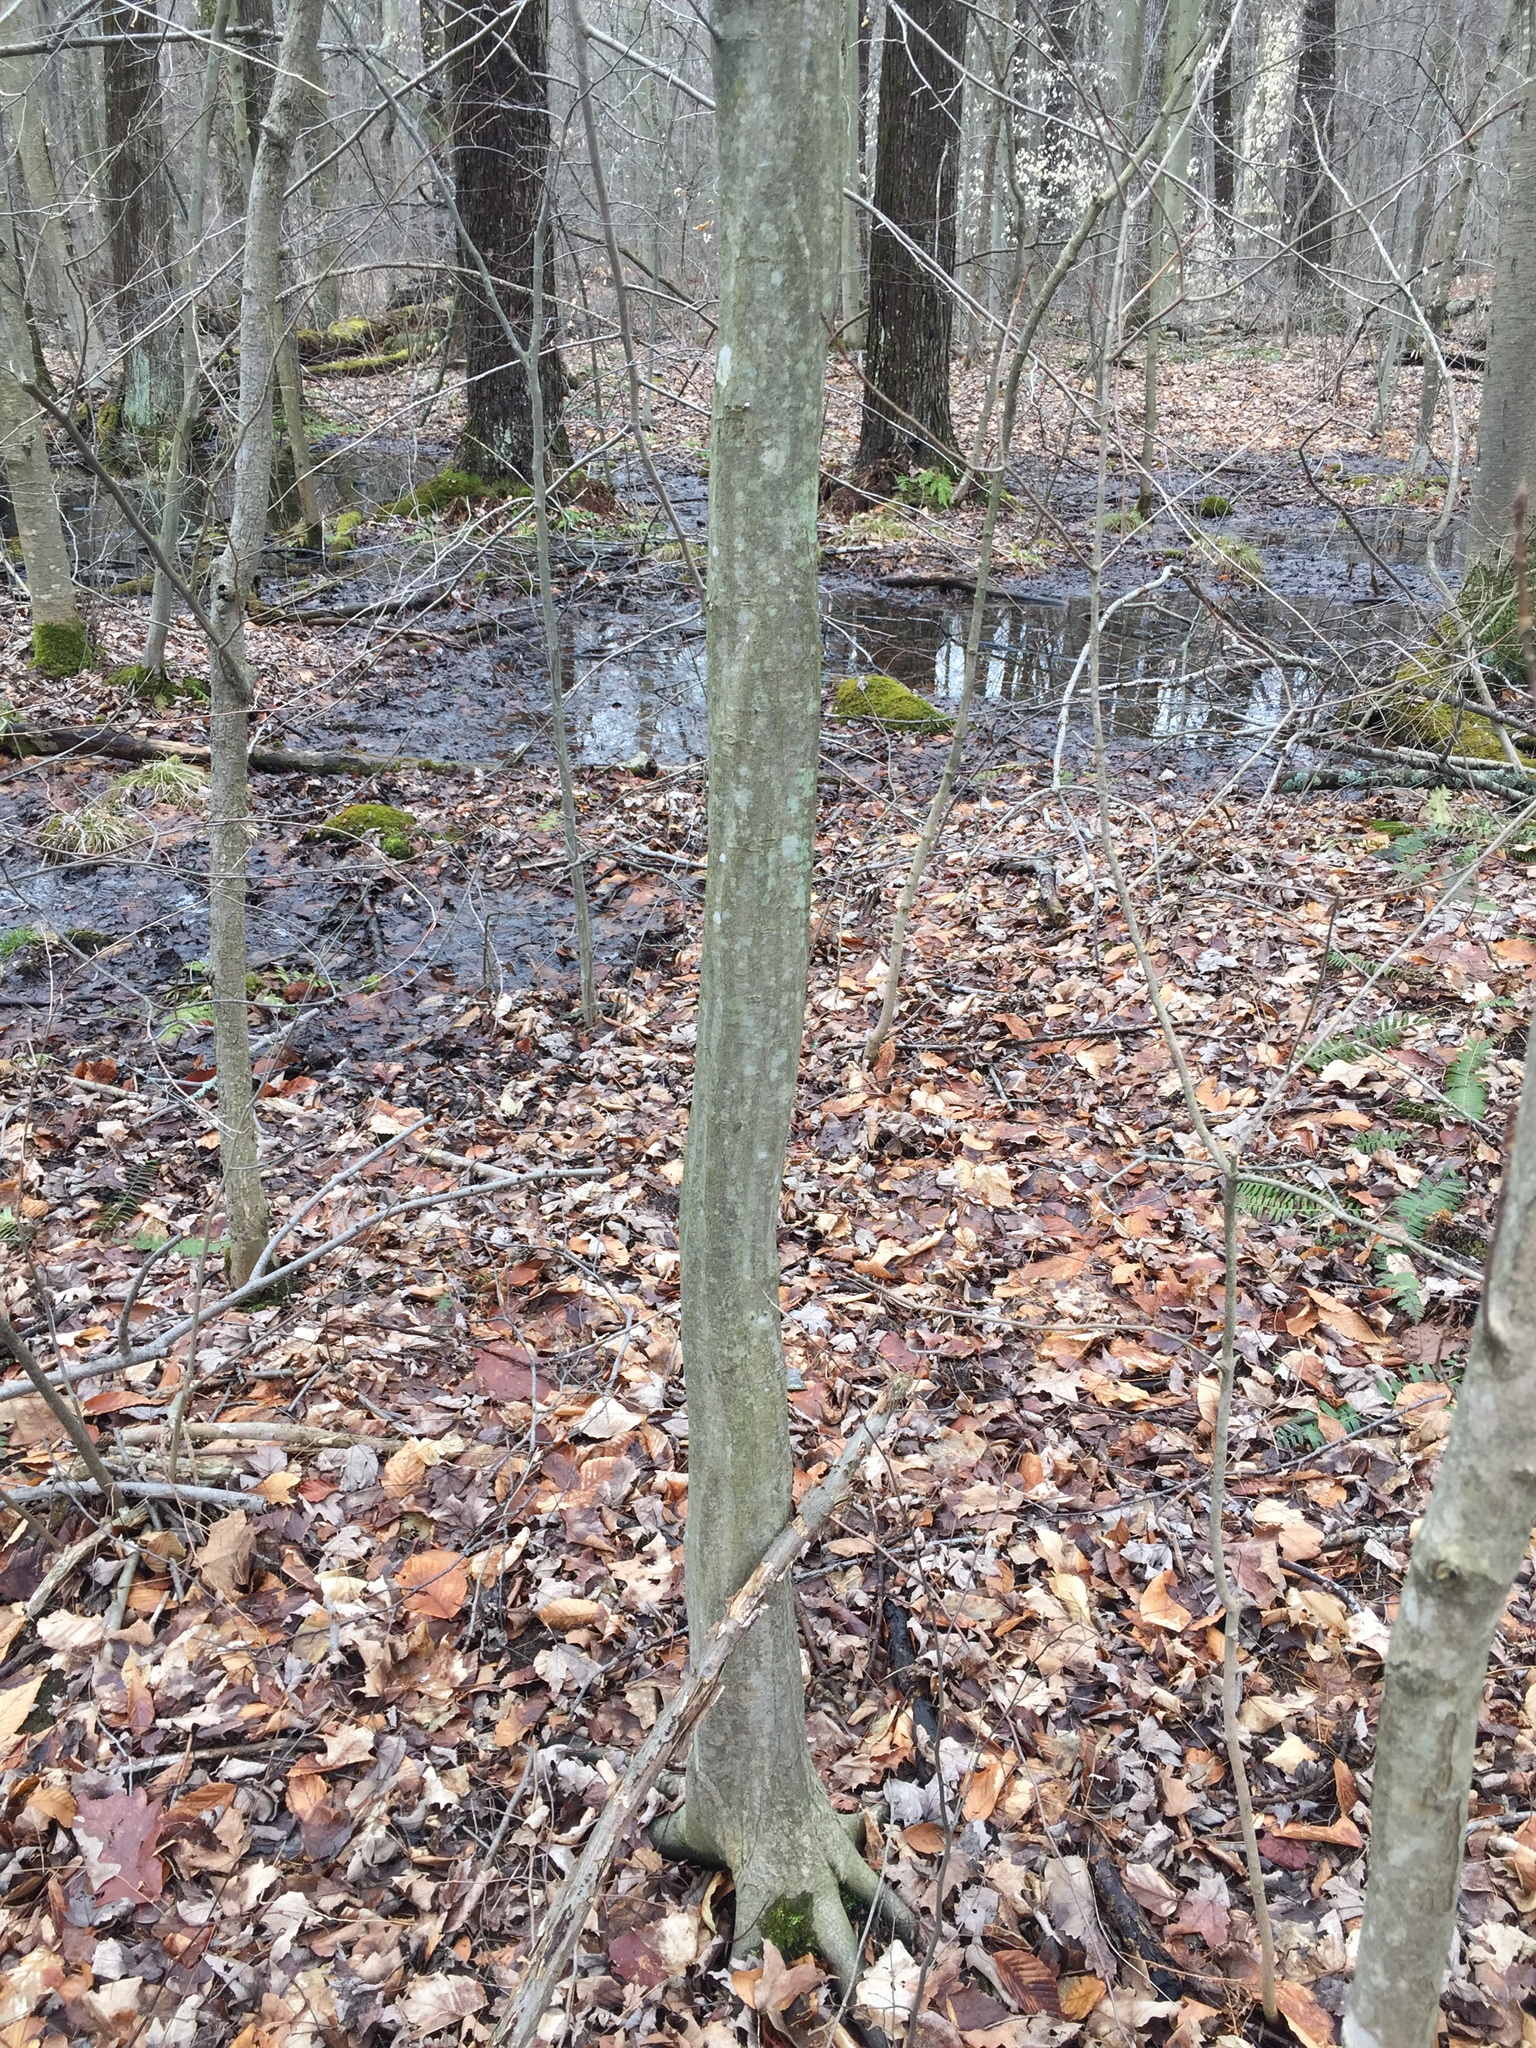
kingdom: Plantae
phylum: Tracheophyta
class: Magnoliopsida
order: Fagales
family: Betulaceae
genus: Carpinus
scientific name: Carpinus caroliniana
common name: American hornbeam
